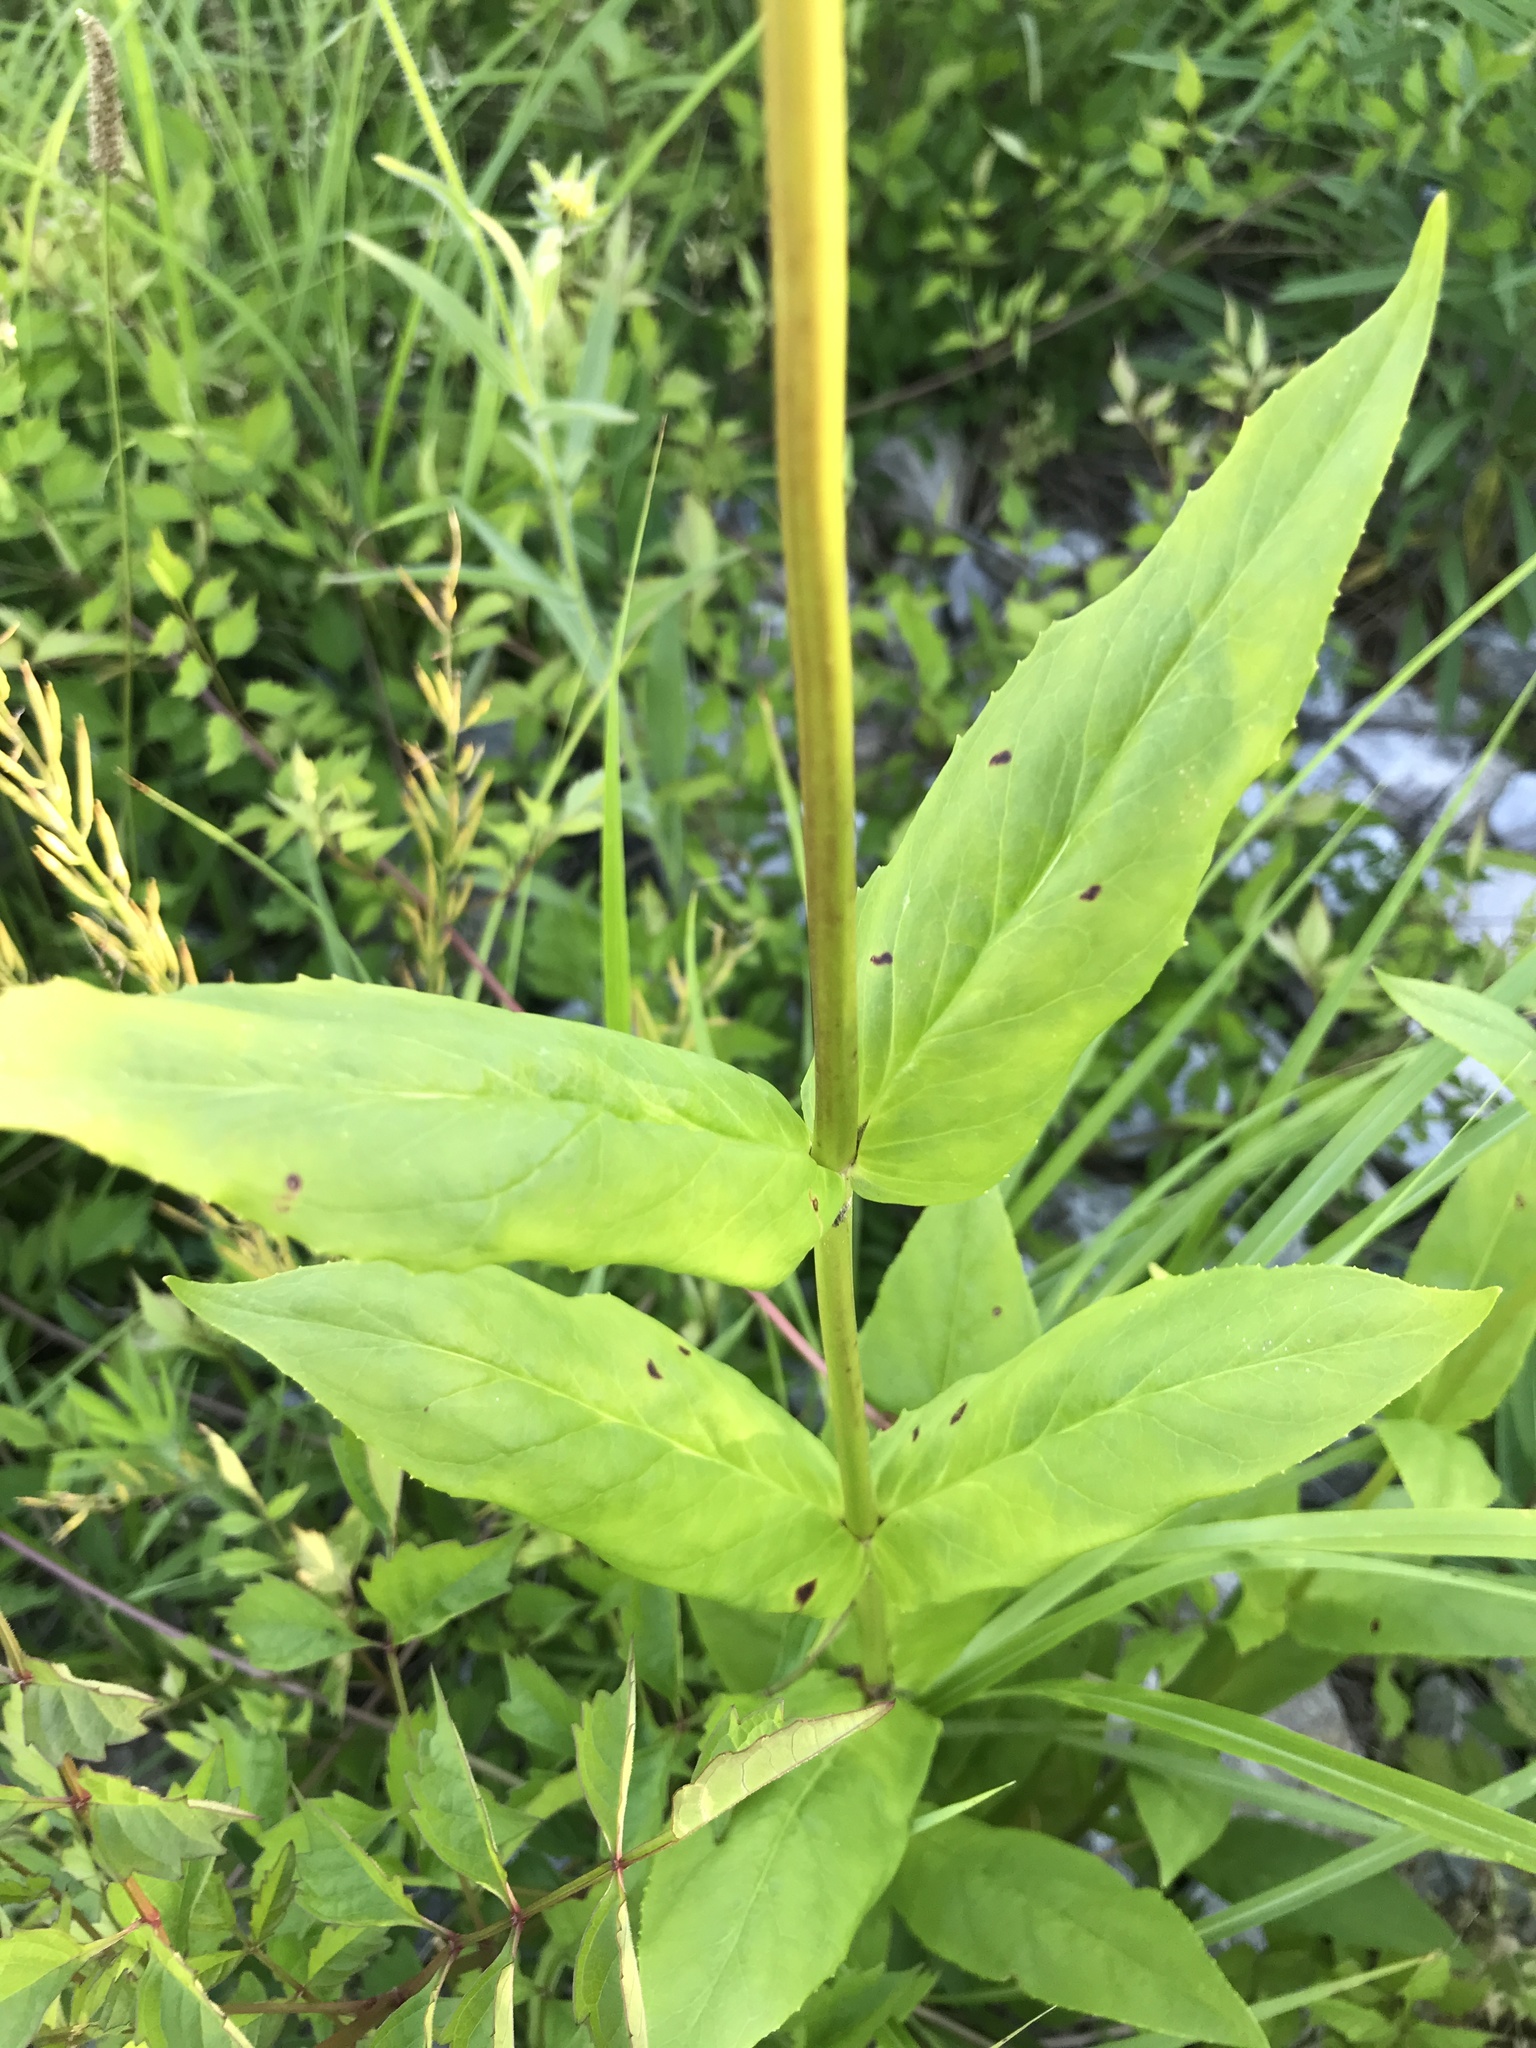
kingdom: Plantae
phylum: Tracheophyta
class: Magnoliopsida
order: Lamiales
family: Plantaginaceae
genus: Penstemon
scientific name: Penstemon digitalis
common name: Foxglove beardtongue
